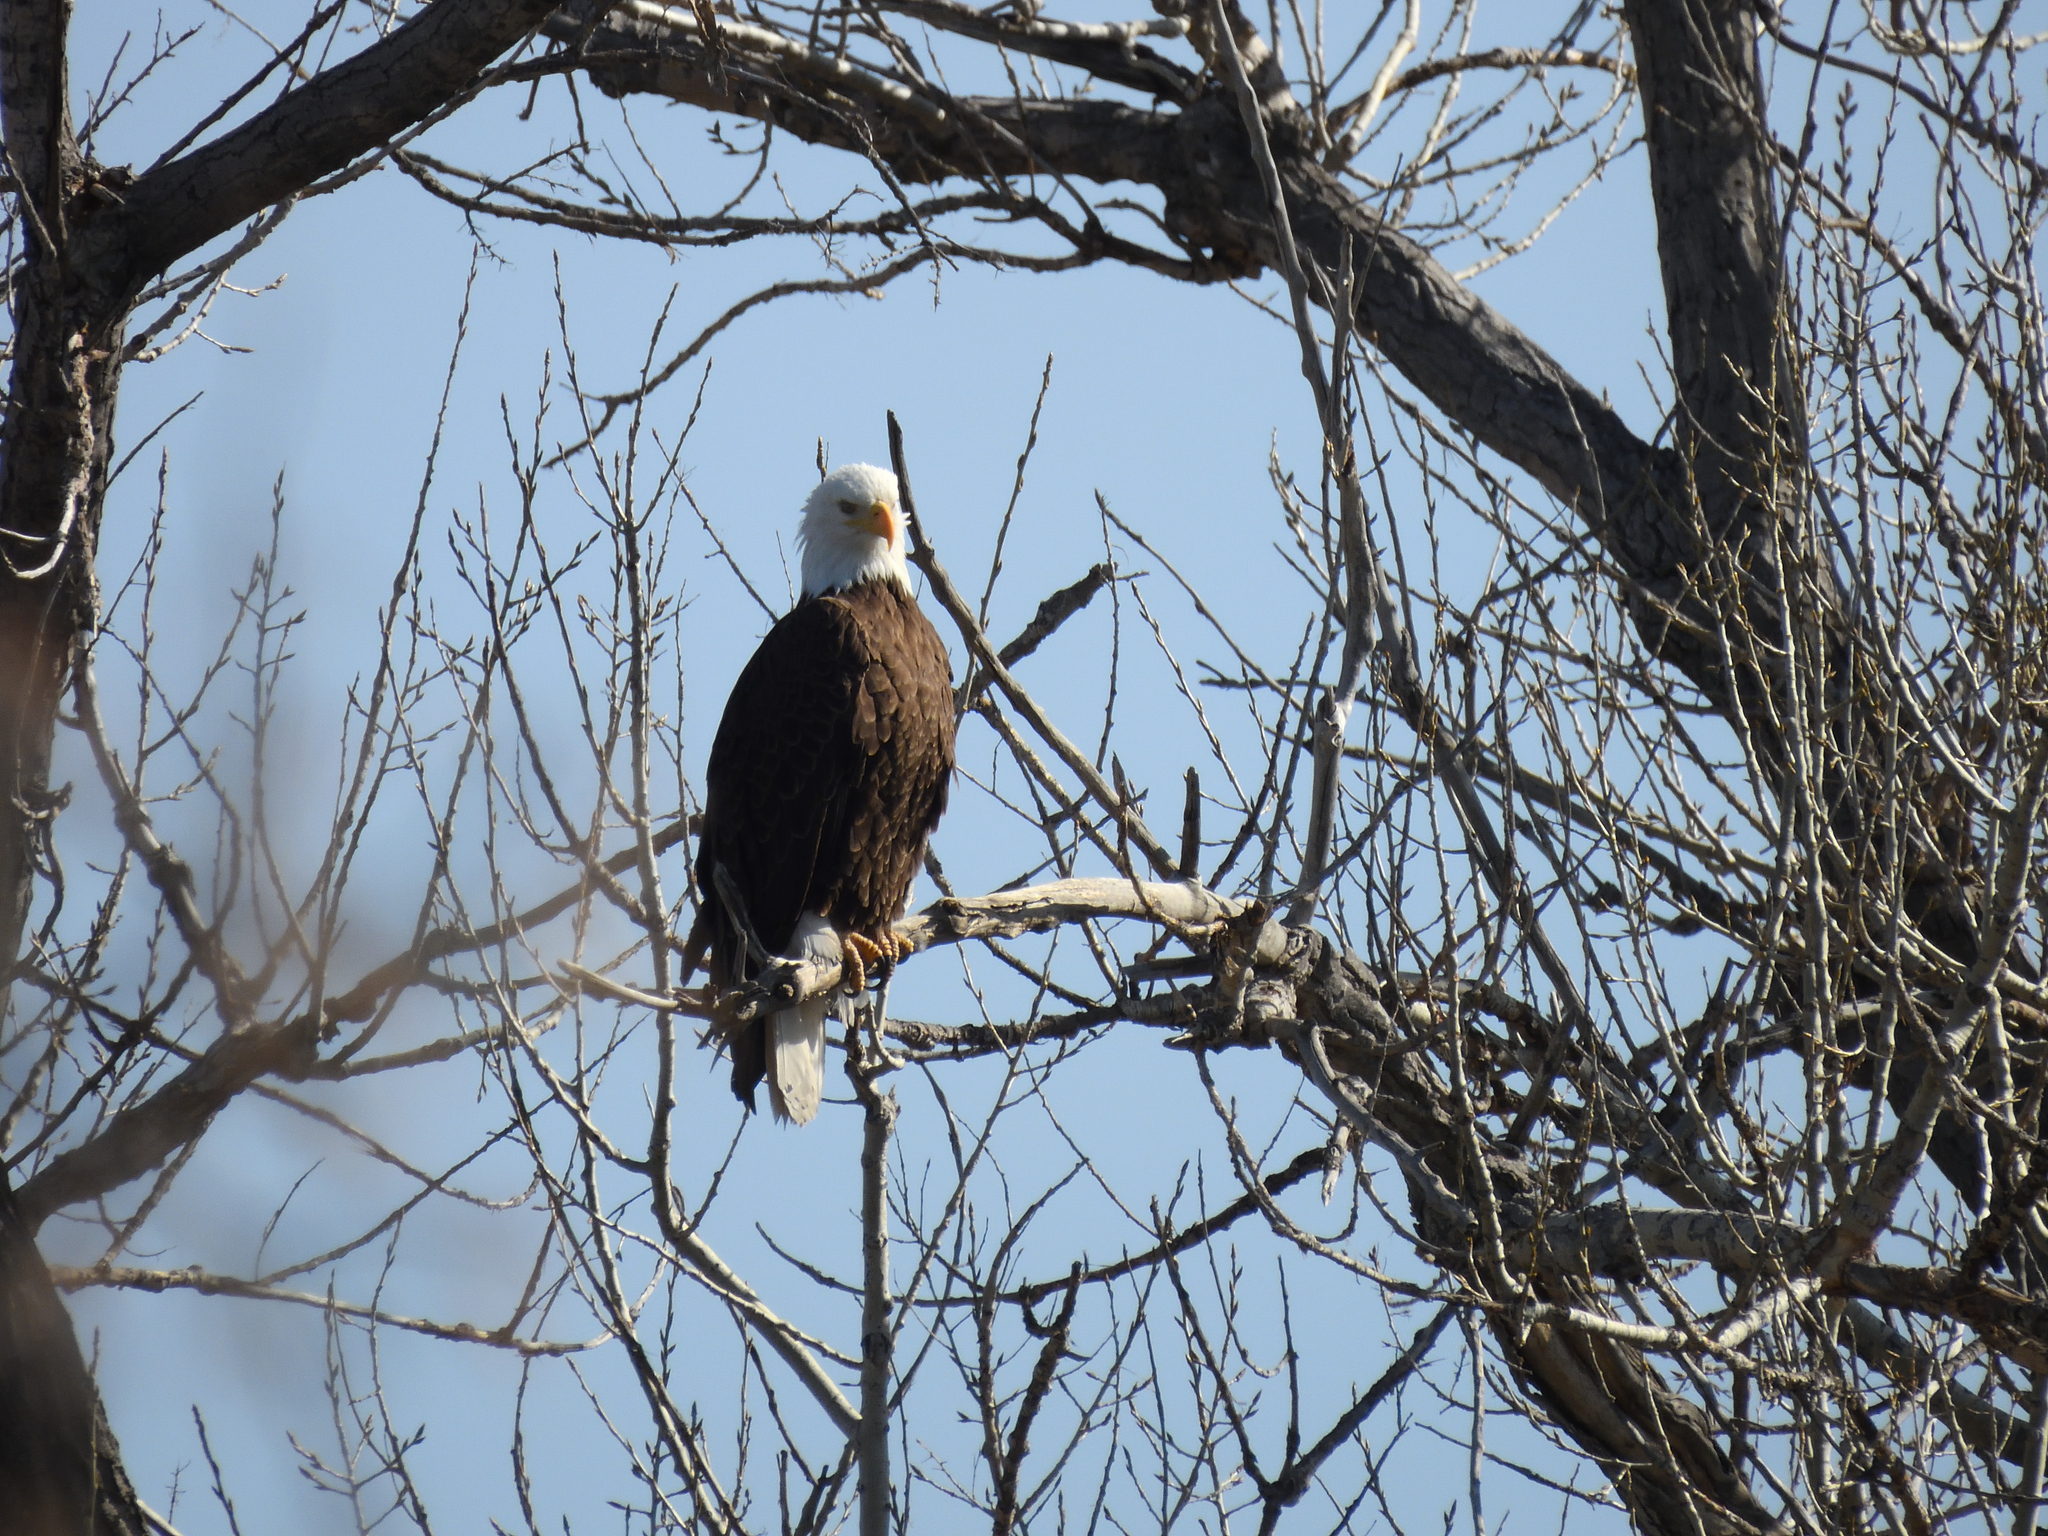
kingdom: Animalia
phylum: Chordata
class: Aves
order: Accipitriformes
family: Accipitridae
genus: Haliaeetus
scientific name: Haliaeetus leucocephalus
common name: Bald eagle
